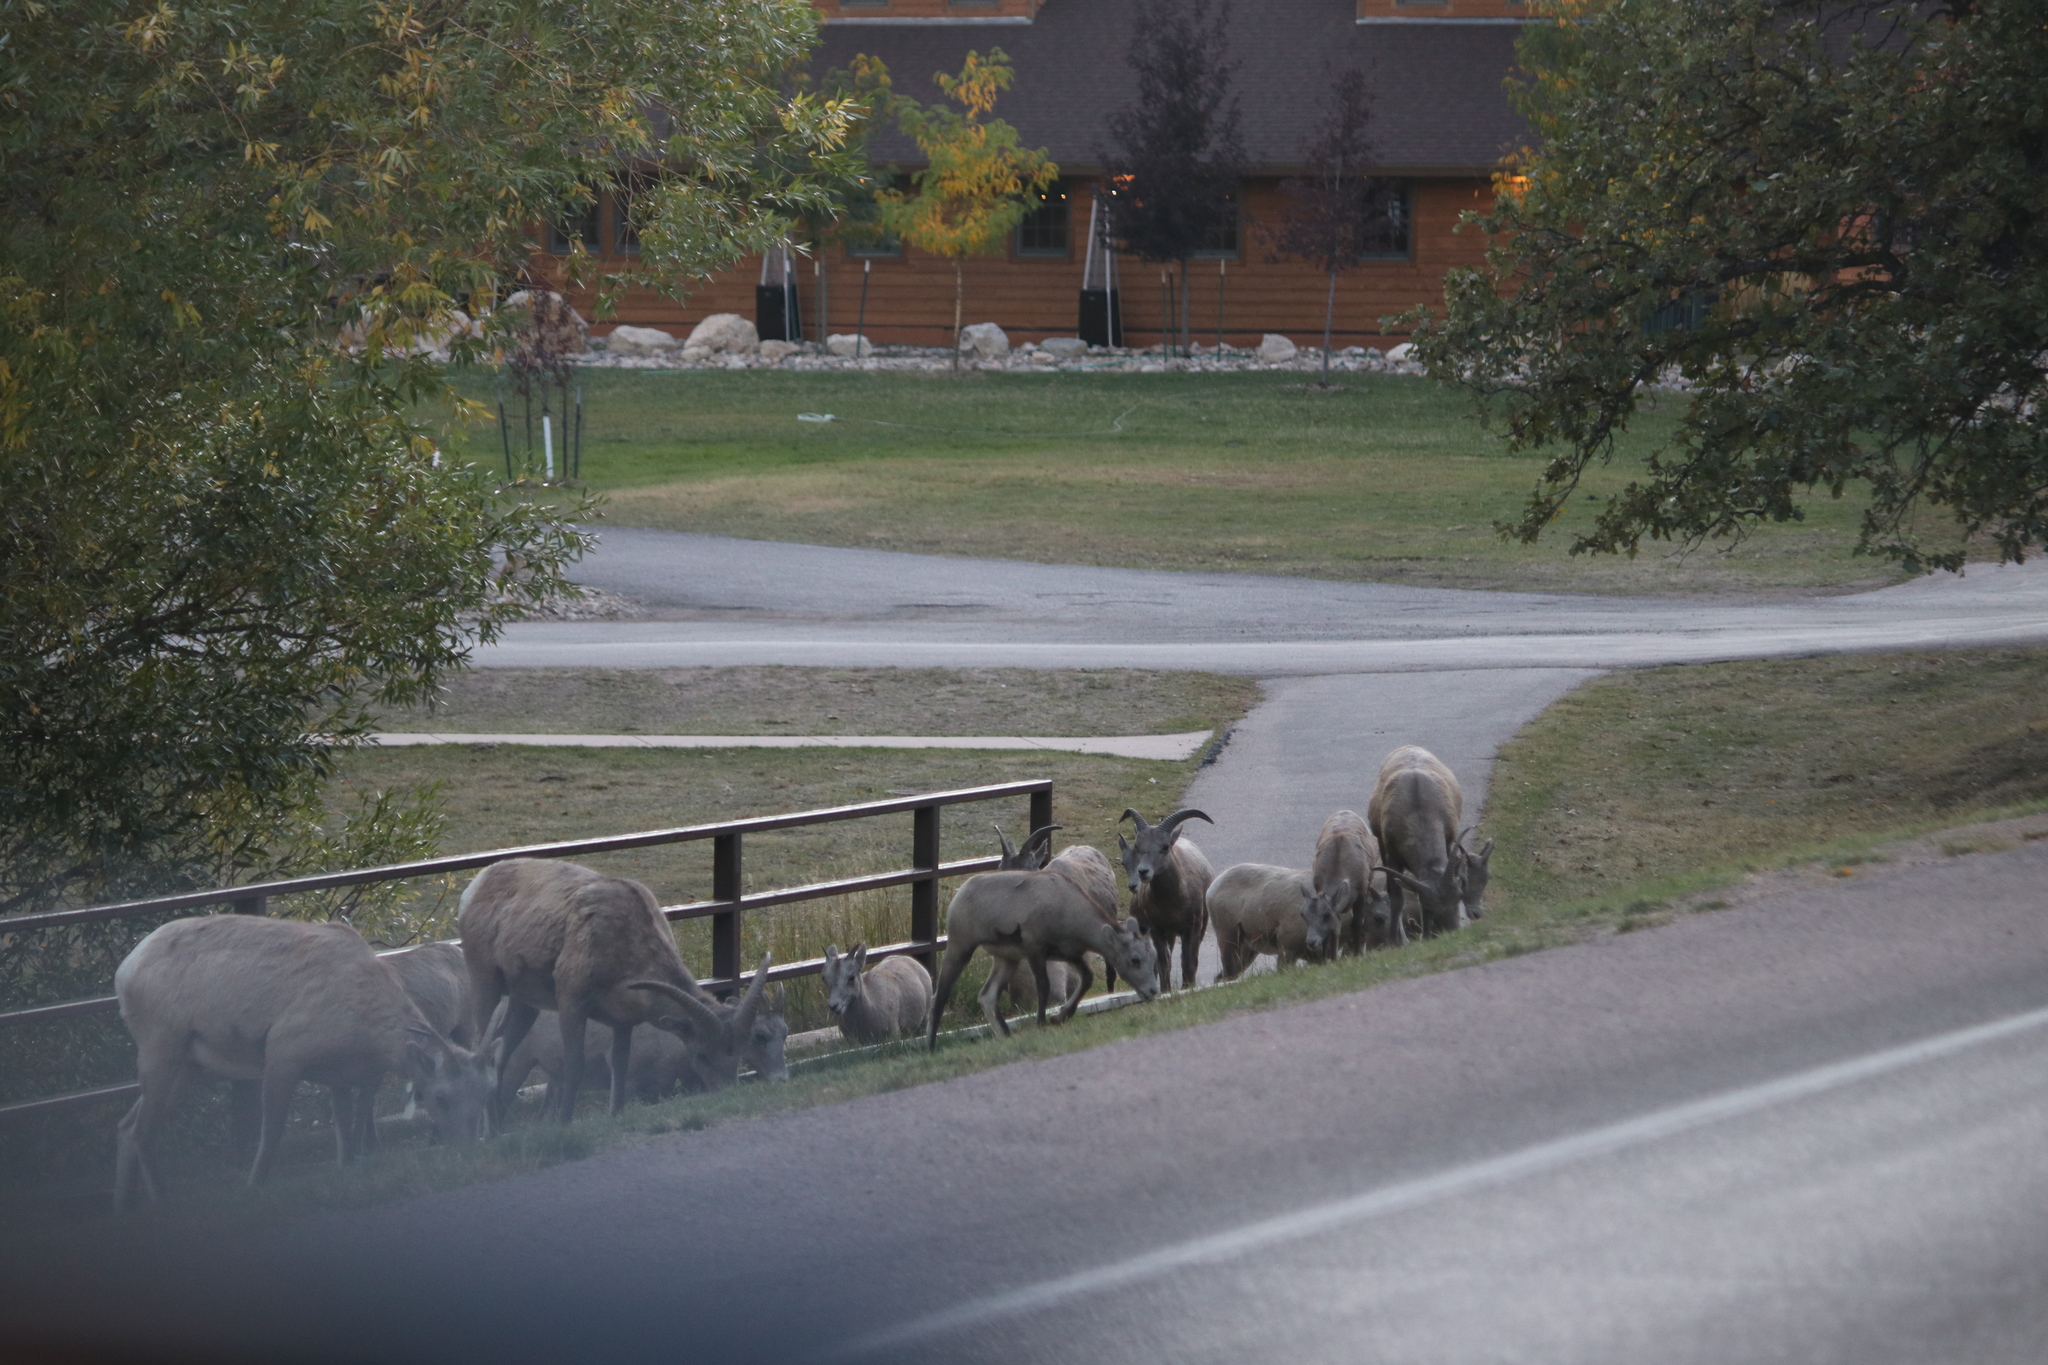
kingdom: Animalia
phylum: Chordata
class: Mammalia
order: Artiodactyla
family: Bovidae
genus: Ovis
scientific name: Ovis canadensis
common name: Bighorn sheep
